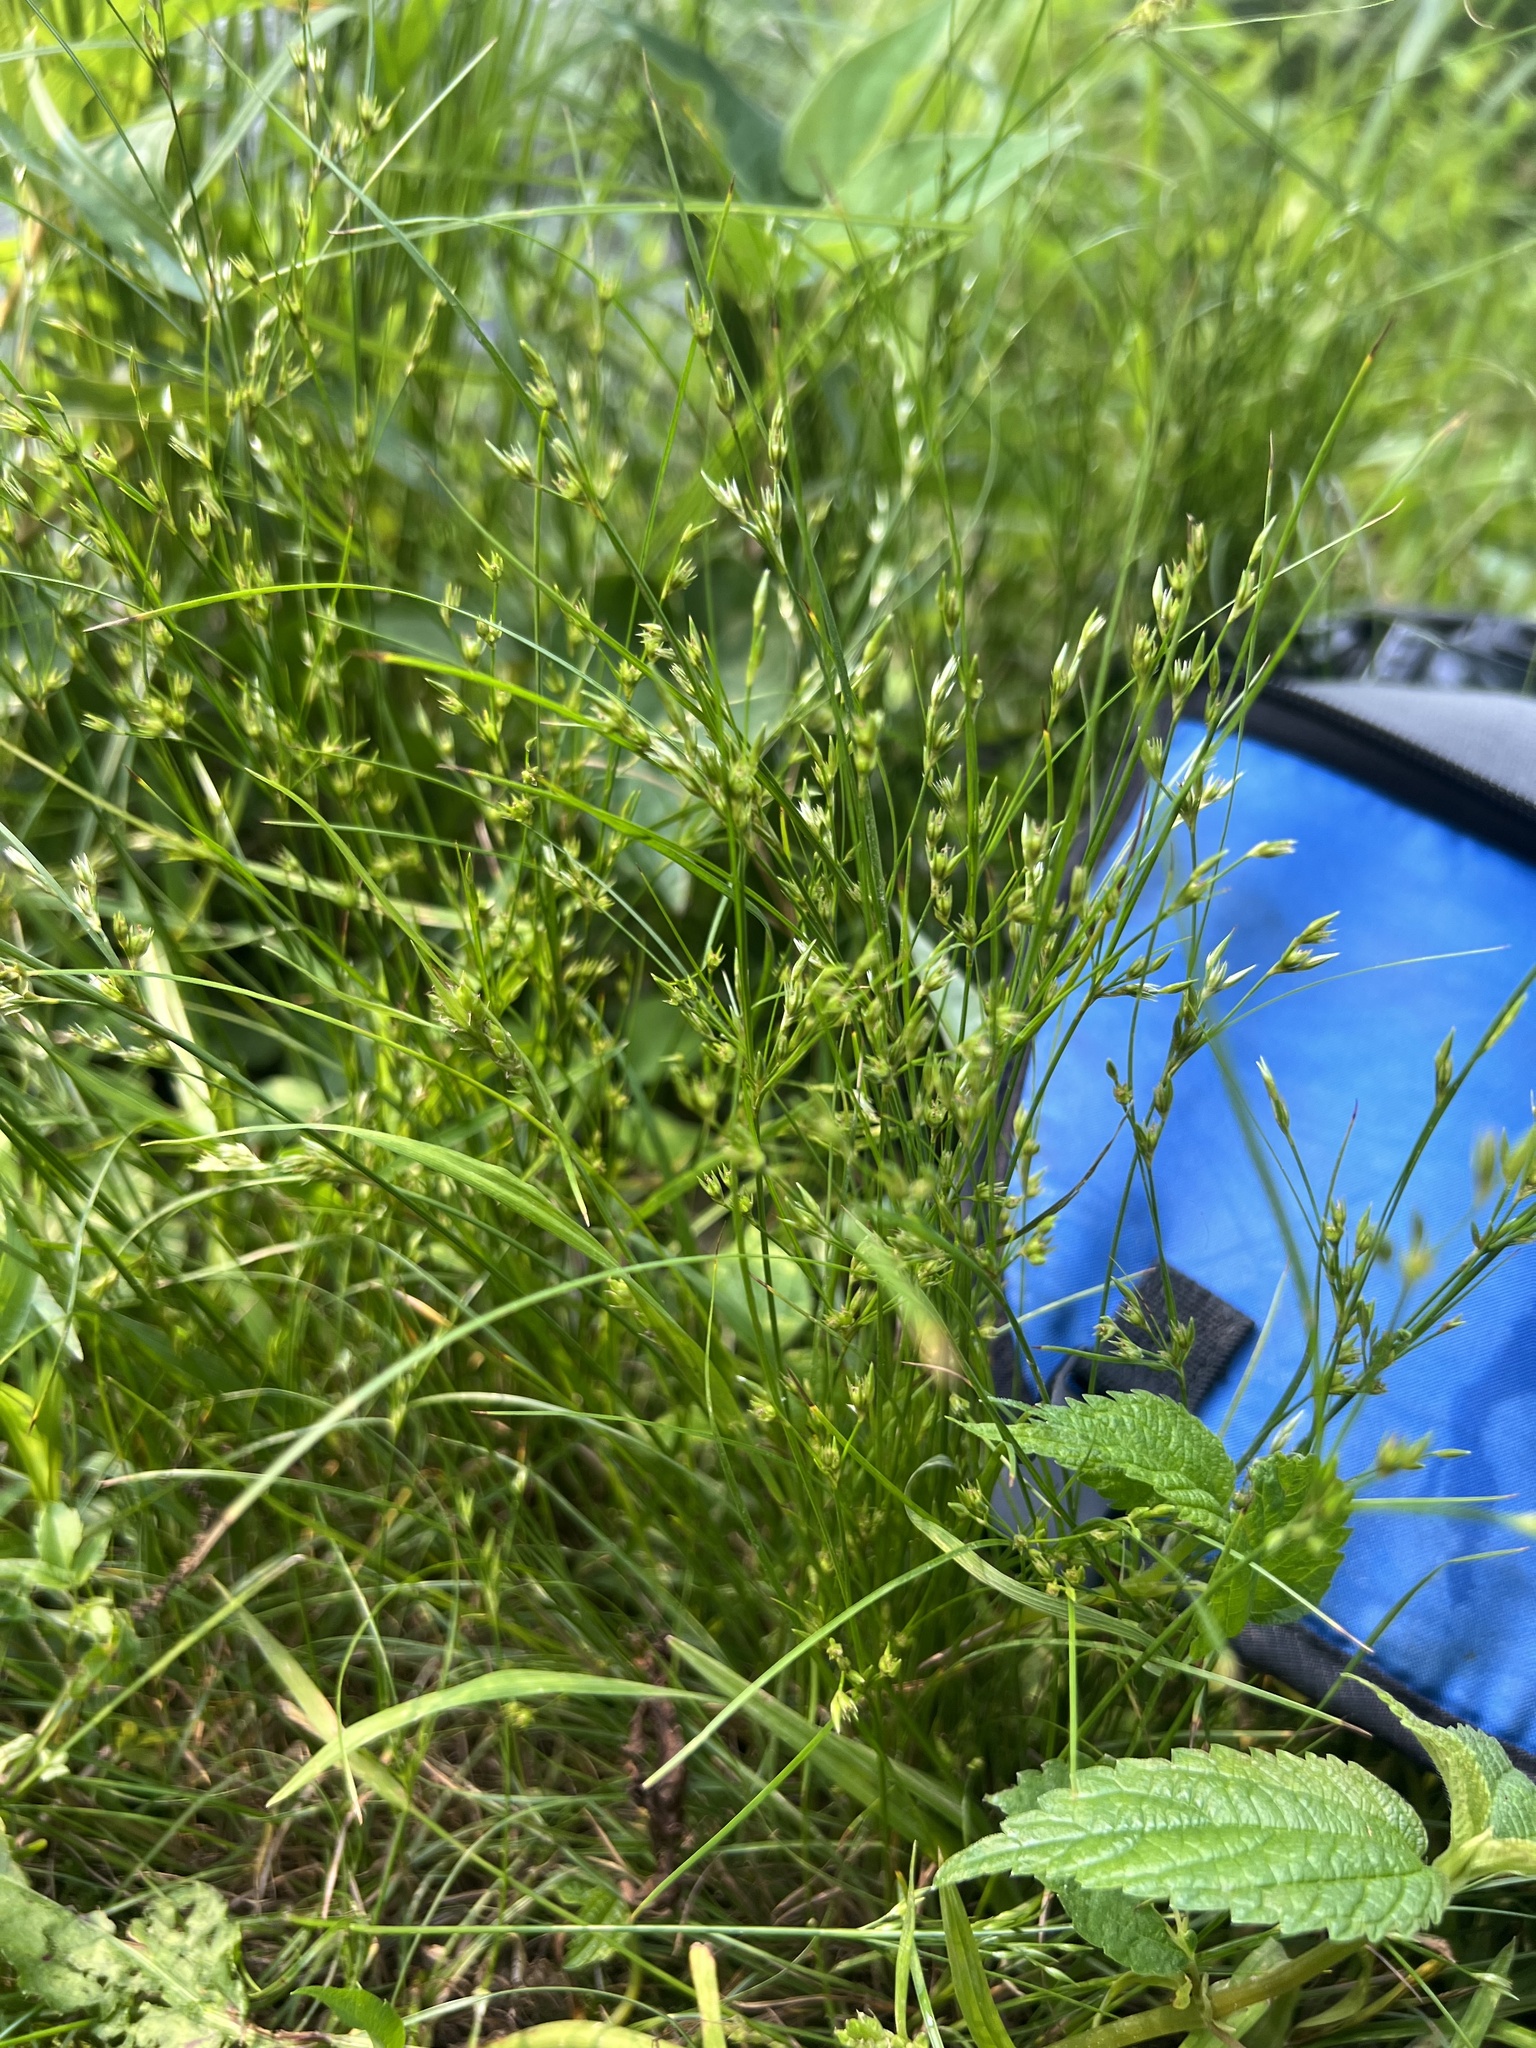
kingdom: Plantae
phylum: Tracheophyta
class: Liliopsida
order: Poales
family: Juncaceae
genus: Juncus
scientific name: Juncus tenuis
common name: Slender rush
